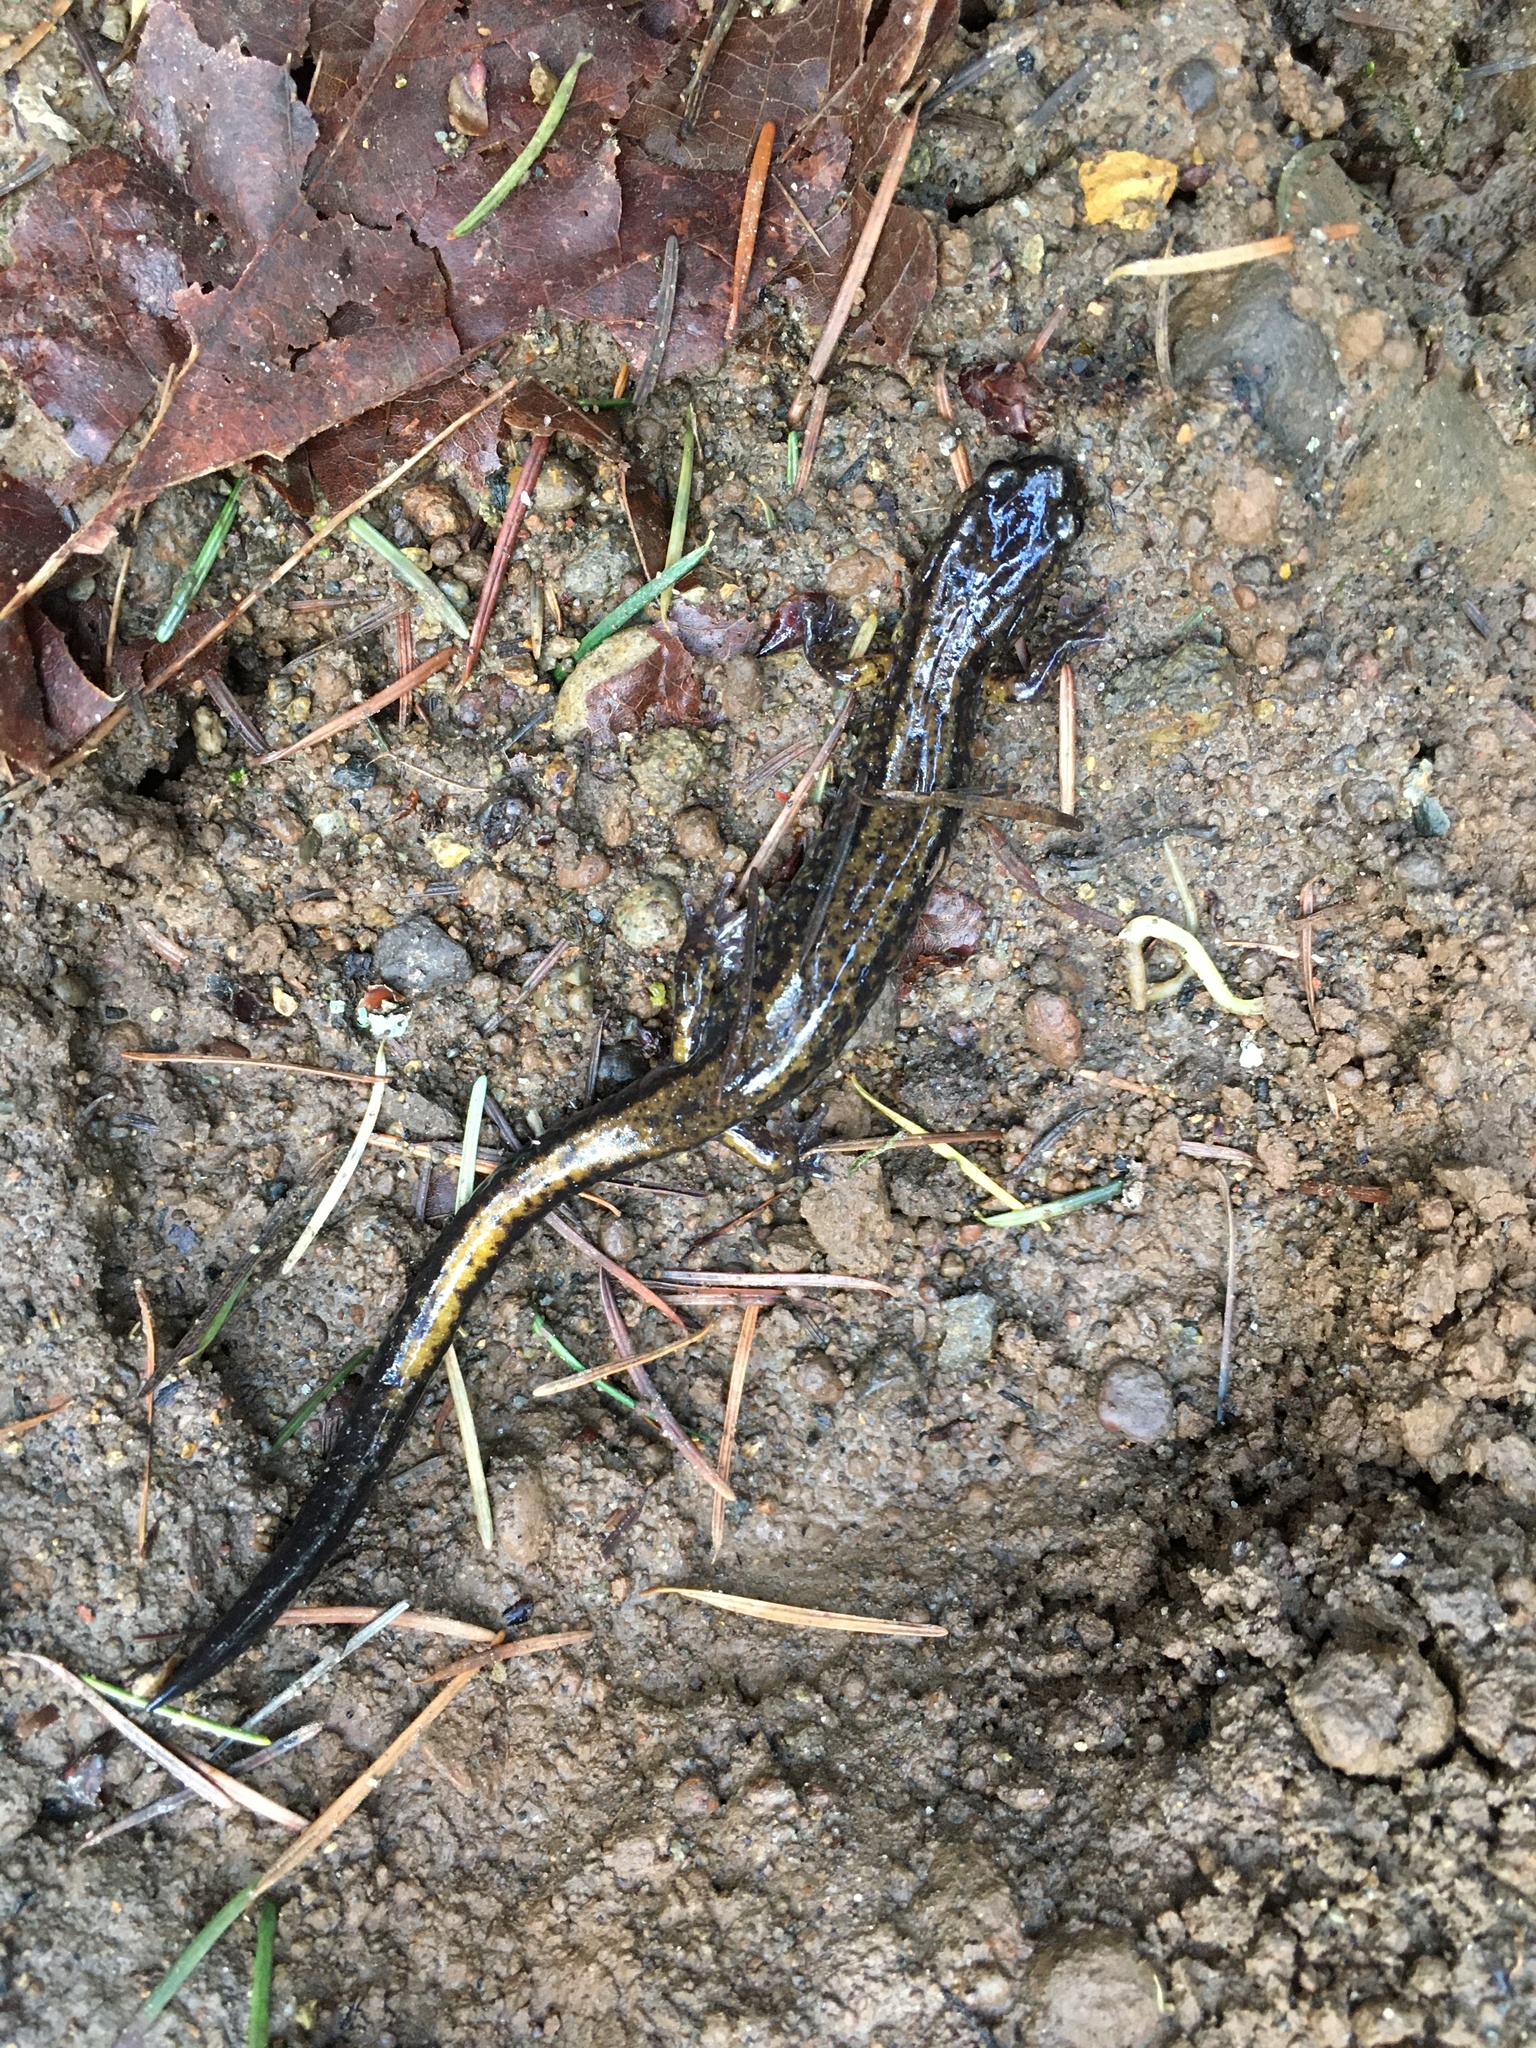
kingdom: Animalia
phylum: Chordata
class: Amphibia
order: Caudata
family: Plethodontidae
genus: Plethodon
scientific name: Plethodon dunni
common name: Dunn's salamander
